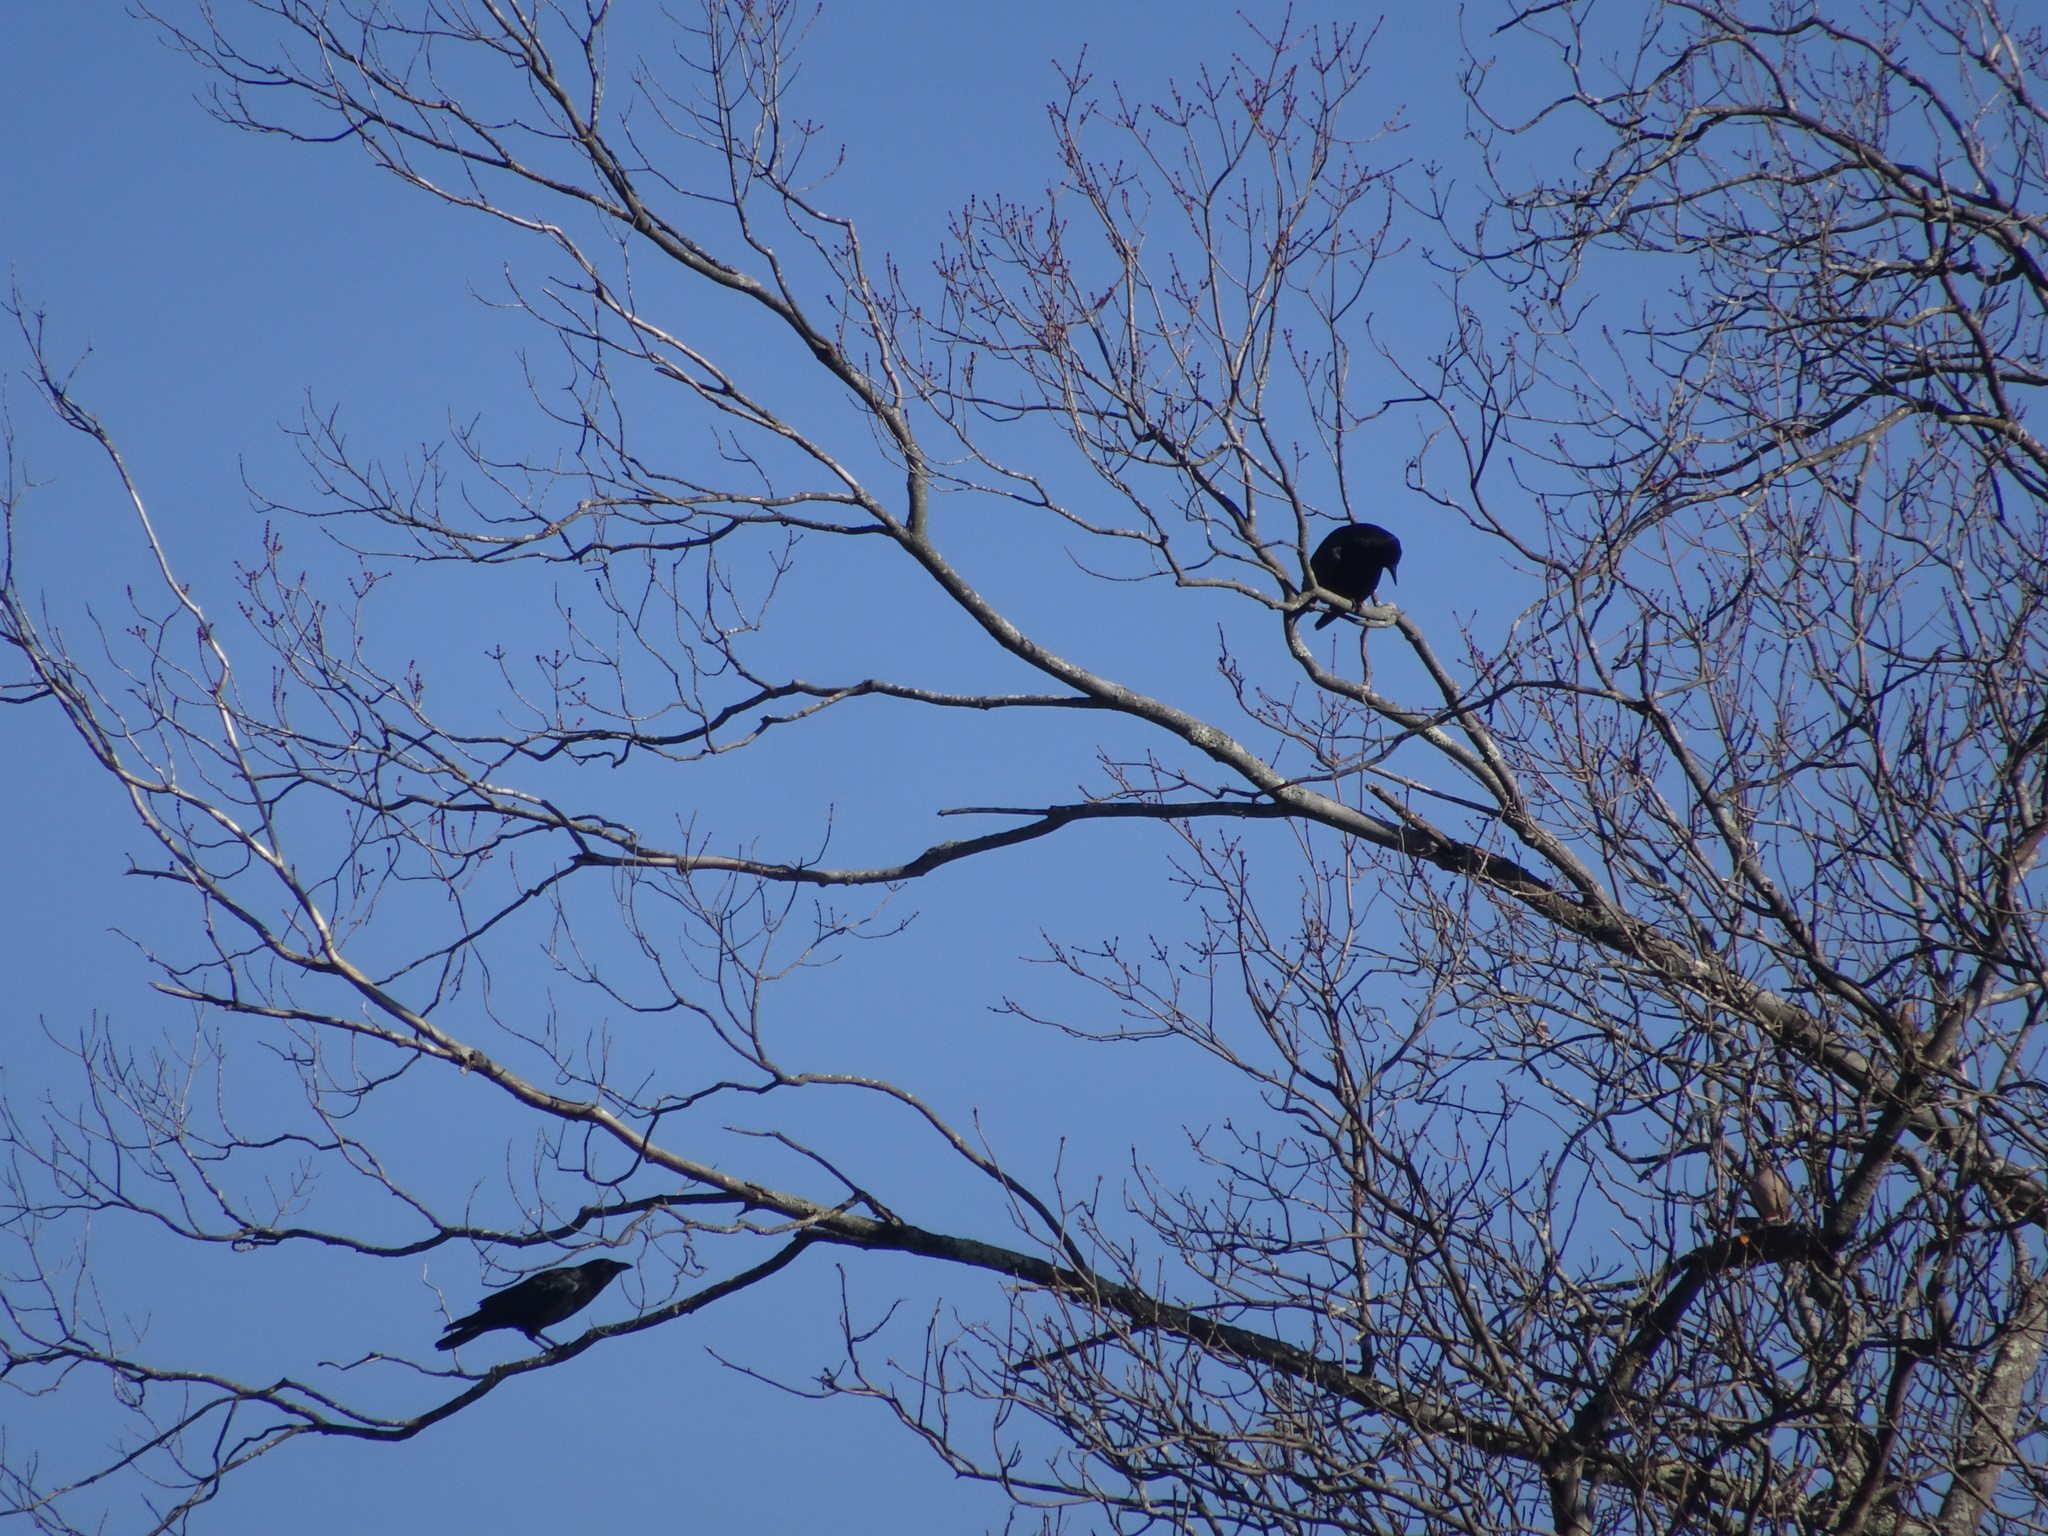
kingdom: Animalia
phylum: Chordata
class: Aves
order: Passeriformes
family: Corvidae
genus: Corvus
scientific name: Corvus brachyrhynchos
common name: American crow
